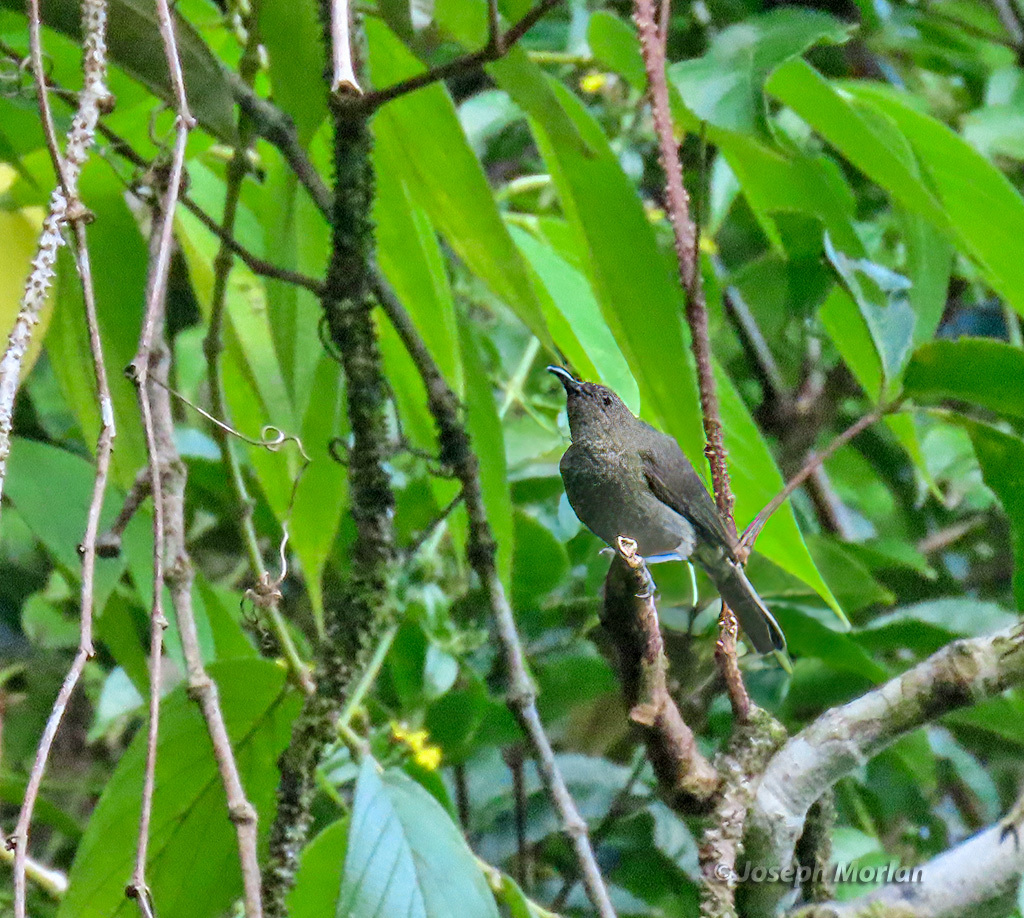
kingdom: Animalia
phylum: Chordata
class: Aves
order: Passeriformes
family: Meliphagidae
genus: Myzomela
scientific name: Myzomela blasii
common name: Drab myzomela
